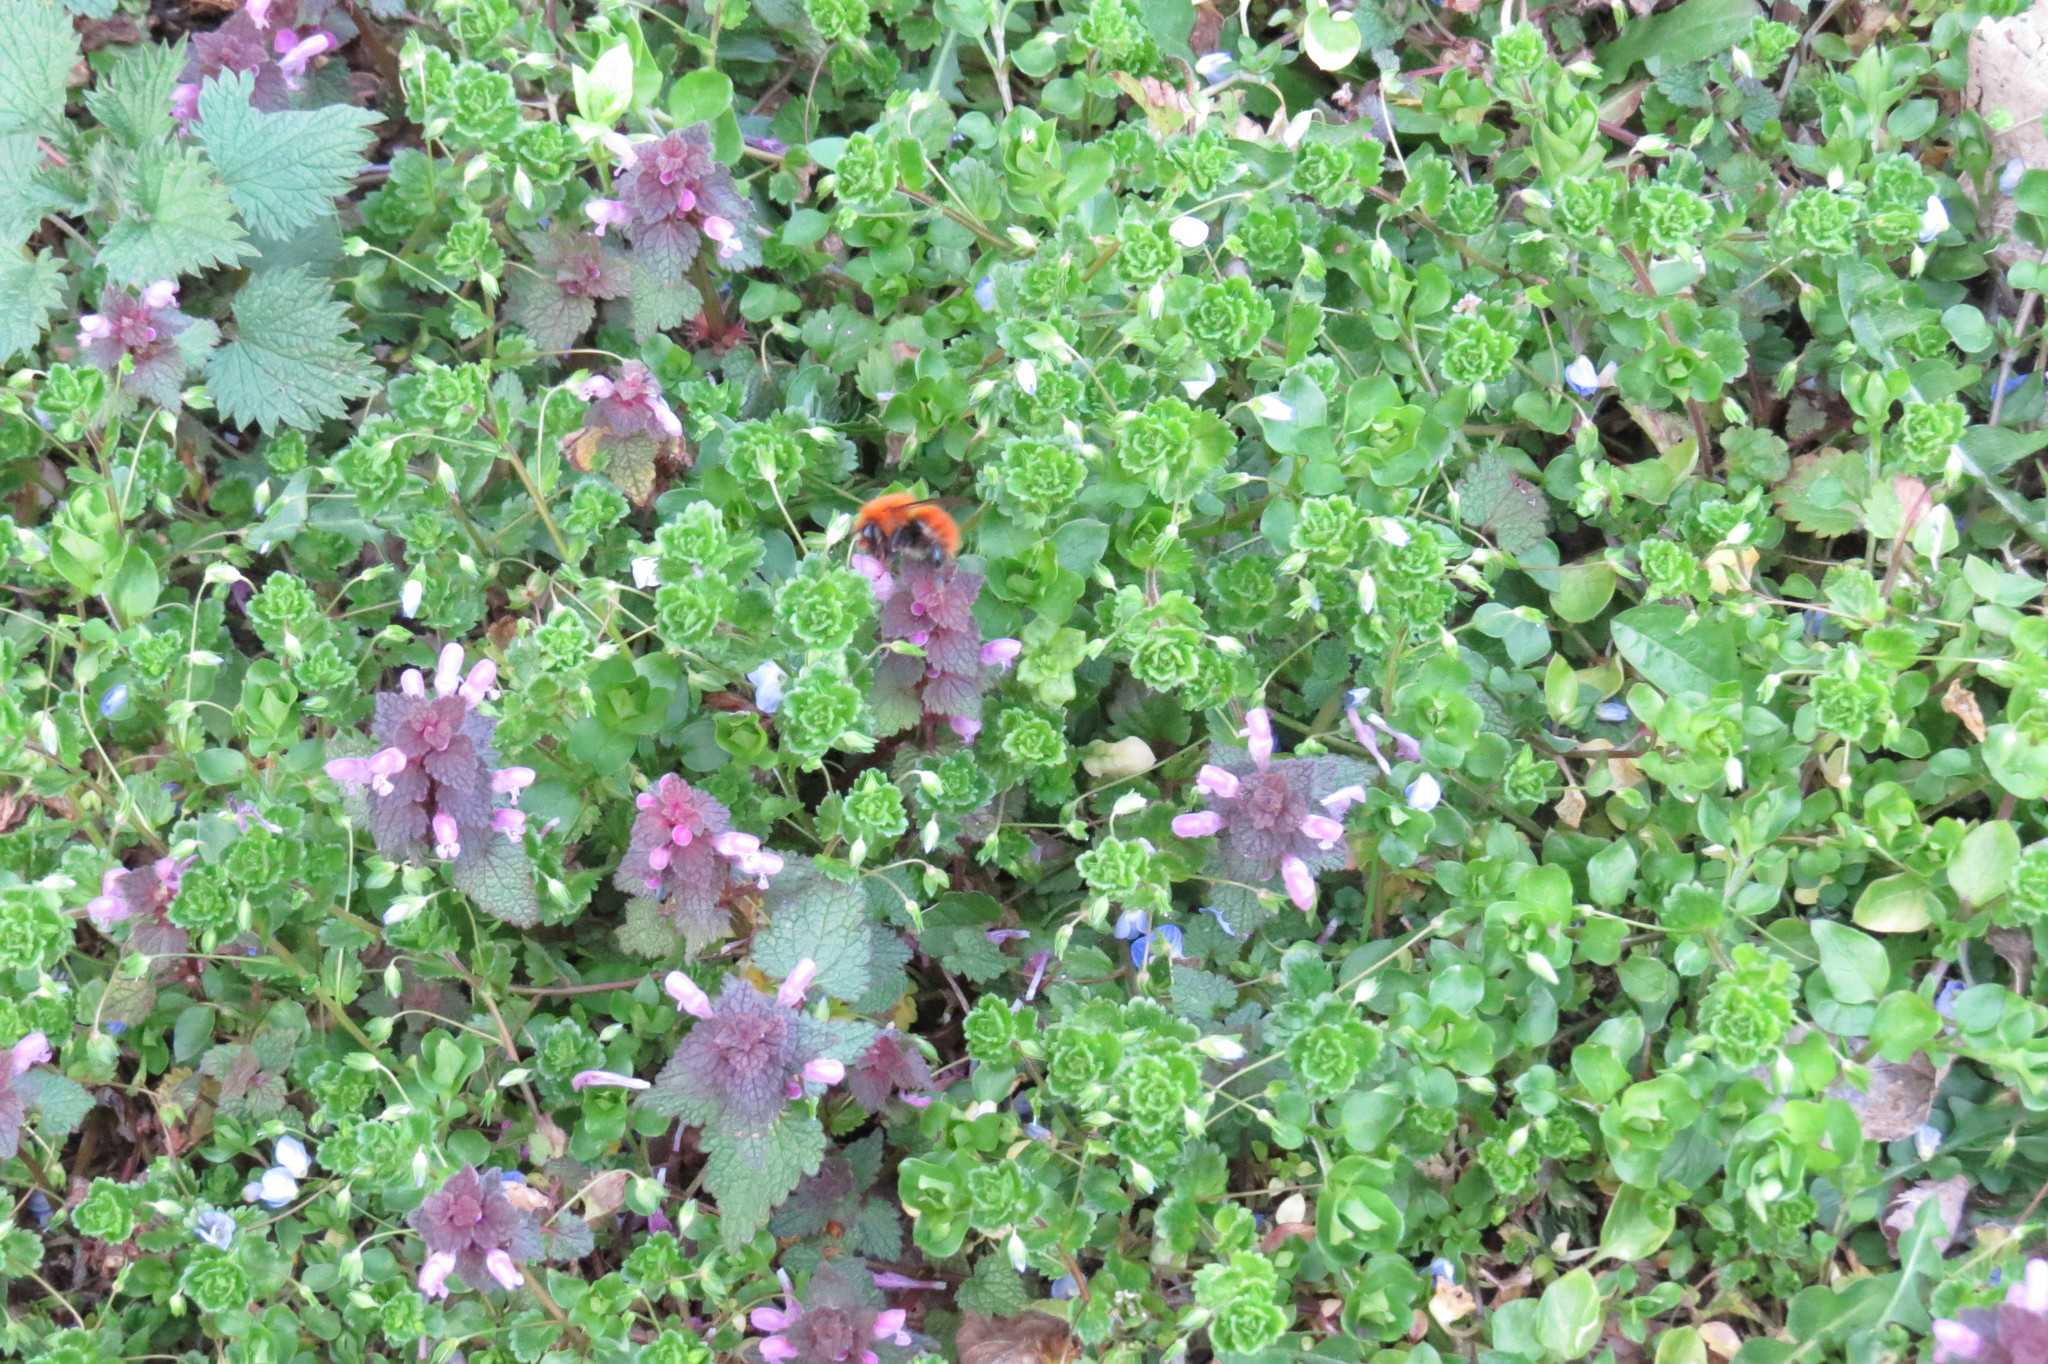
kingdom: Animalia
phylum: Arthropoda
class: Insecta
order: Hymenoptera
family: Apidae
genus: Bombus
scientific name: Bombus pascuorum
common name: Common carder bee
